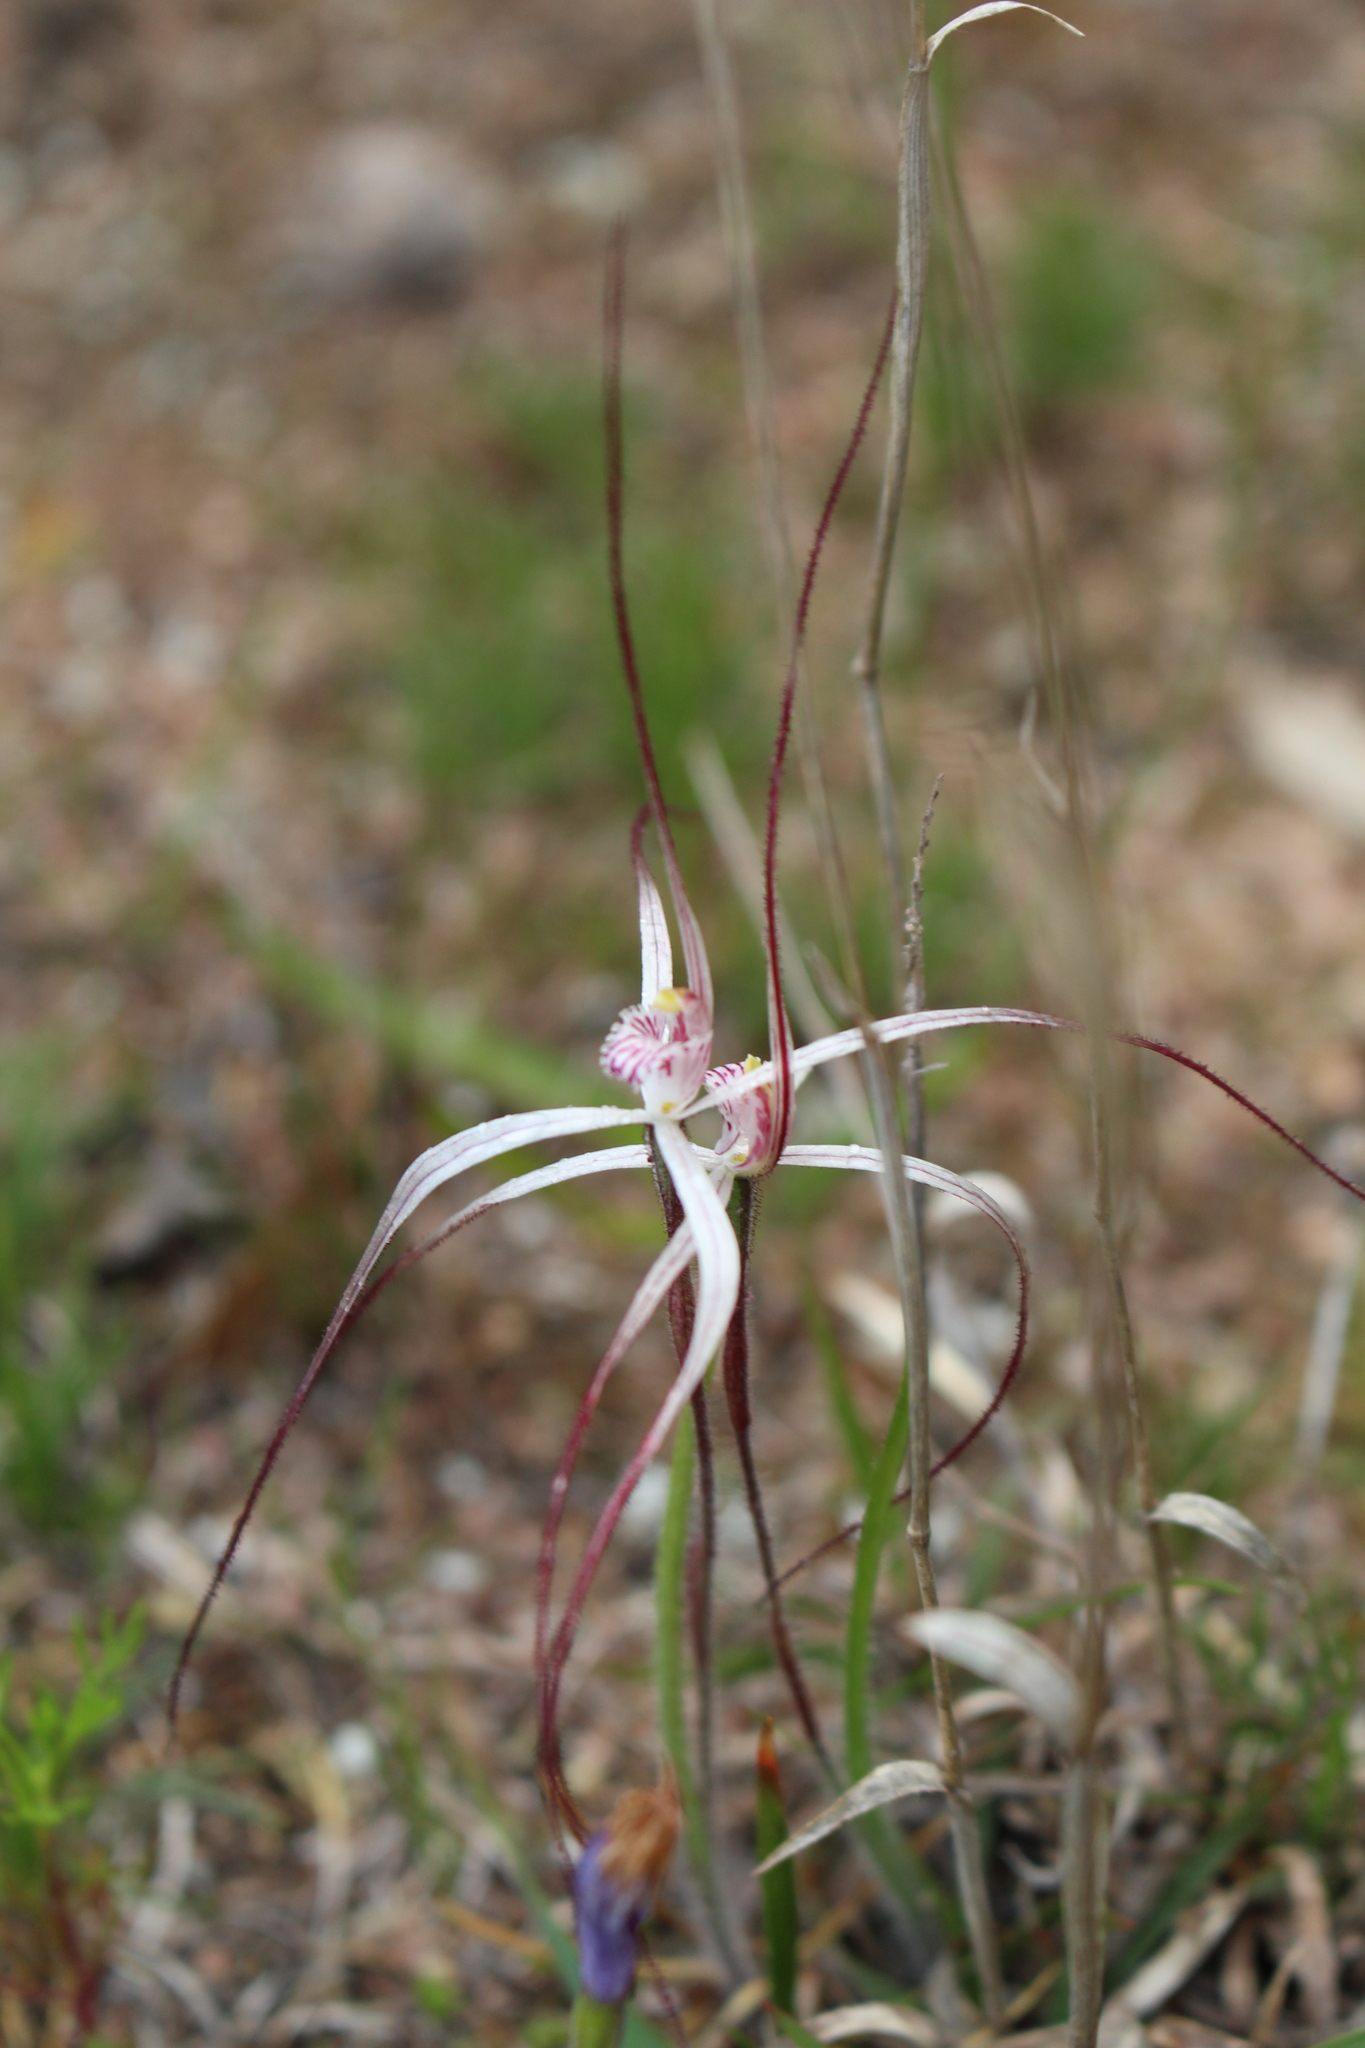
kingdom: Plantae
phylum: Tracheophyta
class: Liliopsida
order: Asparagales
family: Orchidaceae
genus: Caladenia
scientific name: Caladenia varians
